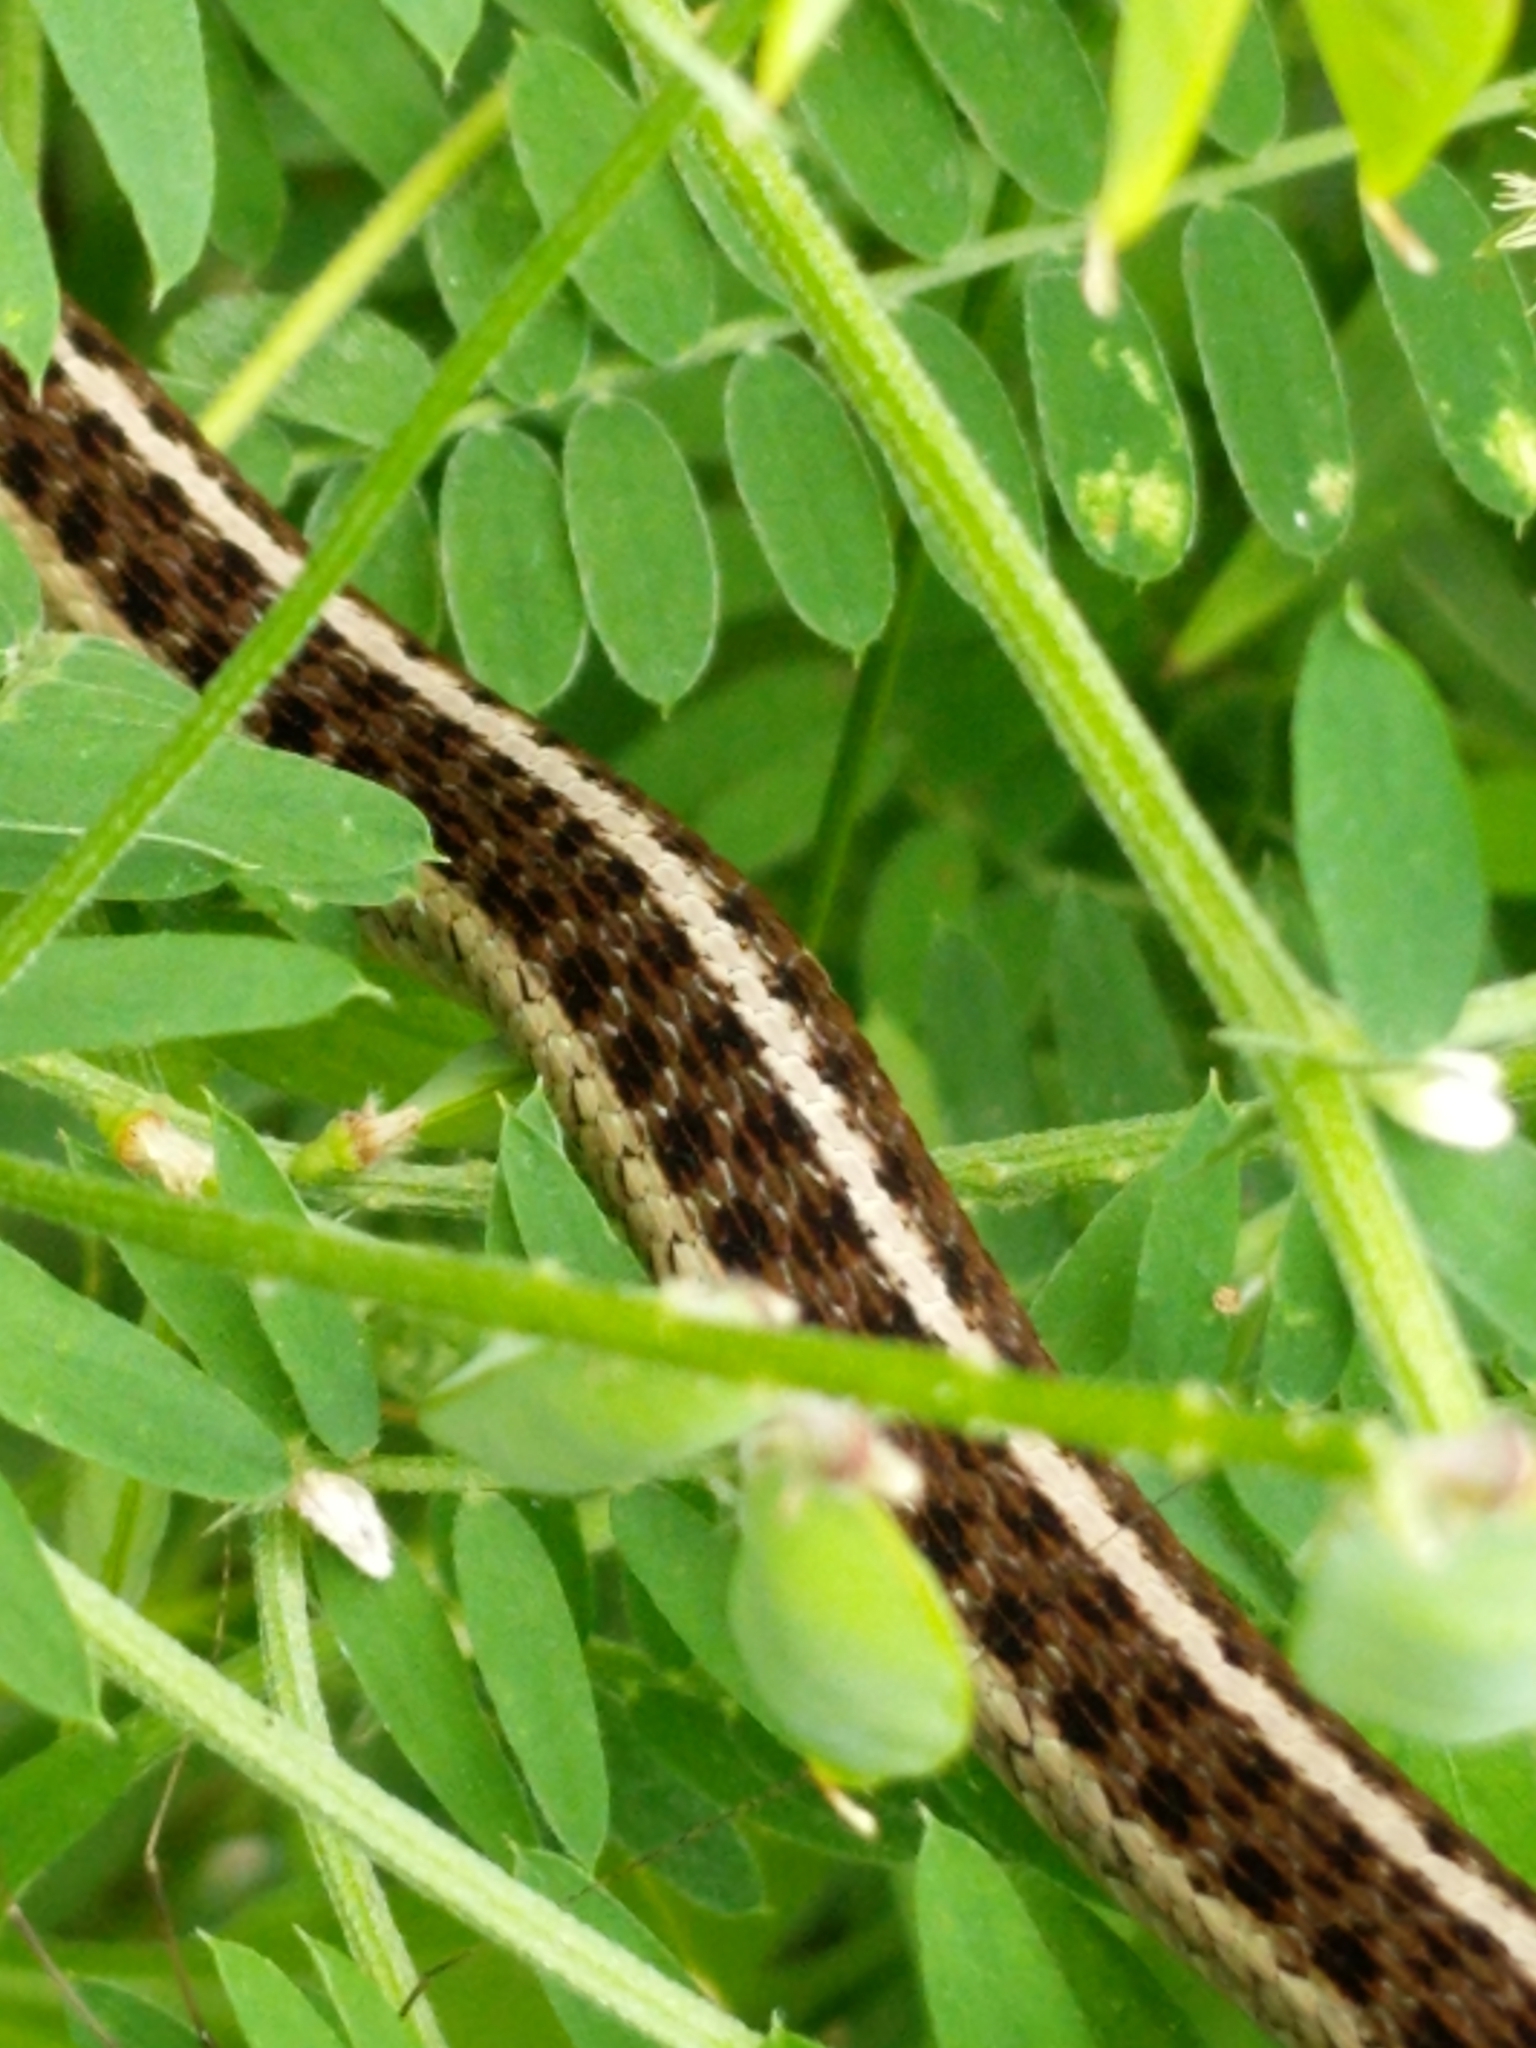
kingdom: Animalia
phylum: Chordata
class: Squamata
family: Colubridae
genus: Thamnophis
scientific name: Thamnophis sirtalis
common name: Common garter snake
